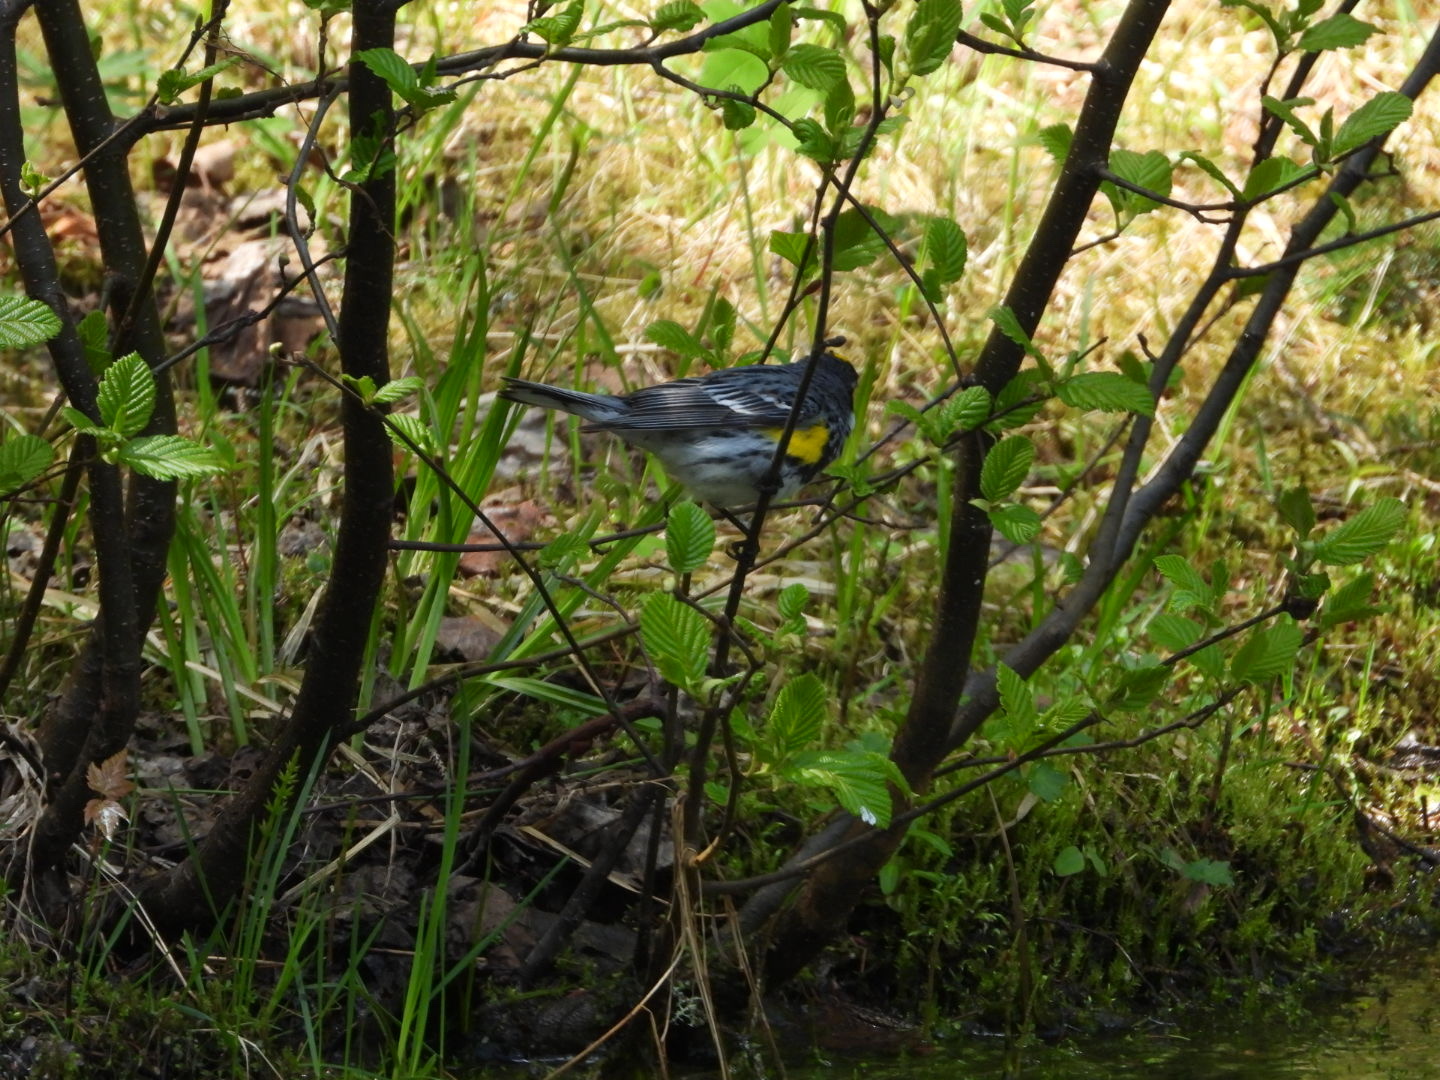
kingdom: Animalia
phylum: Chordata
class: Aves
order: Passeriformes
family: Parulidae
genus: Setophaga
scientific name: Setophaga coronata
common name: Myrtle warbler
